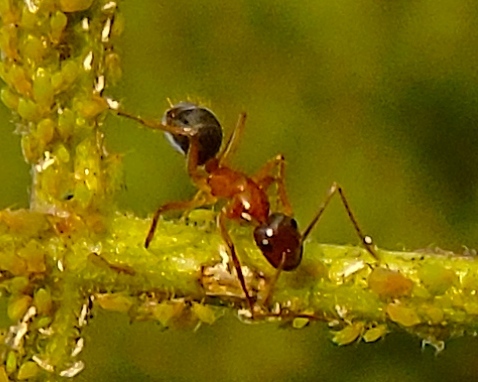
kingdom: Animalia
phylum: Arthropoda
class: Insecta
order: Hymenoptera
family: Formicidae
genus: Camponotus
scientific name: Camponotus
